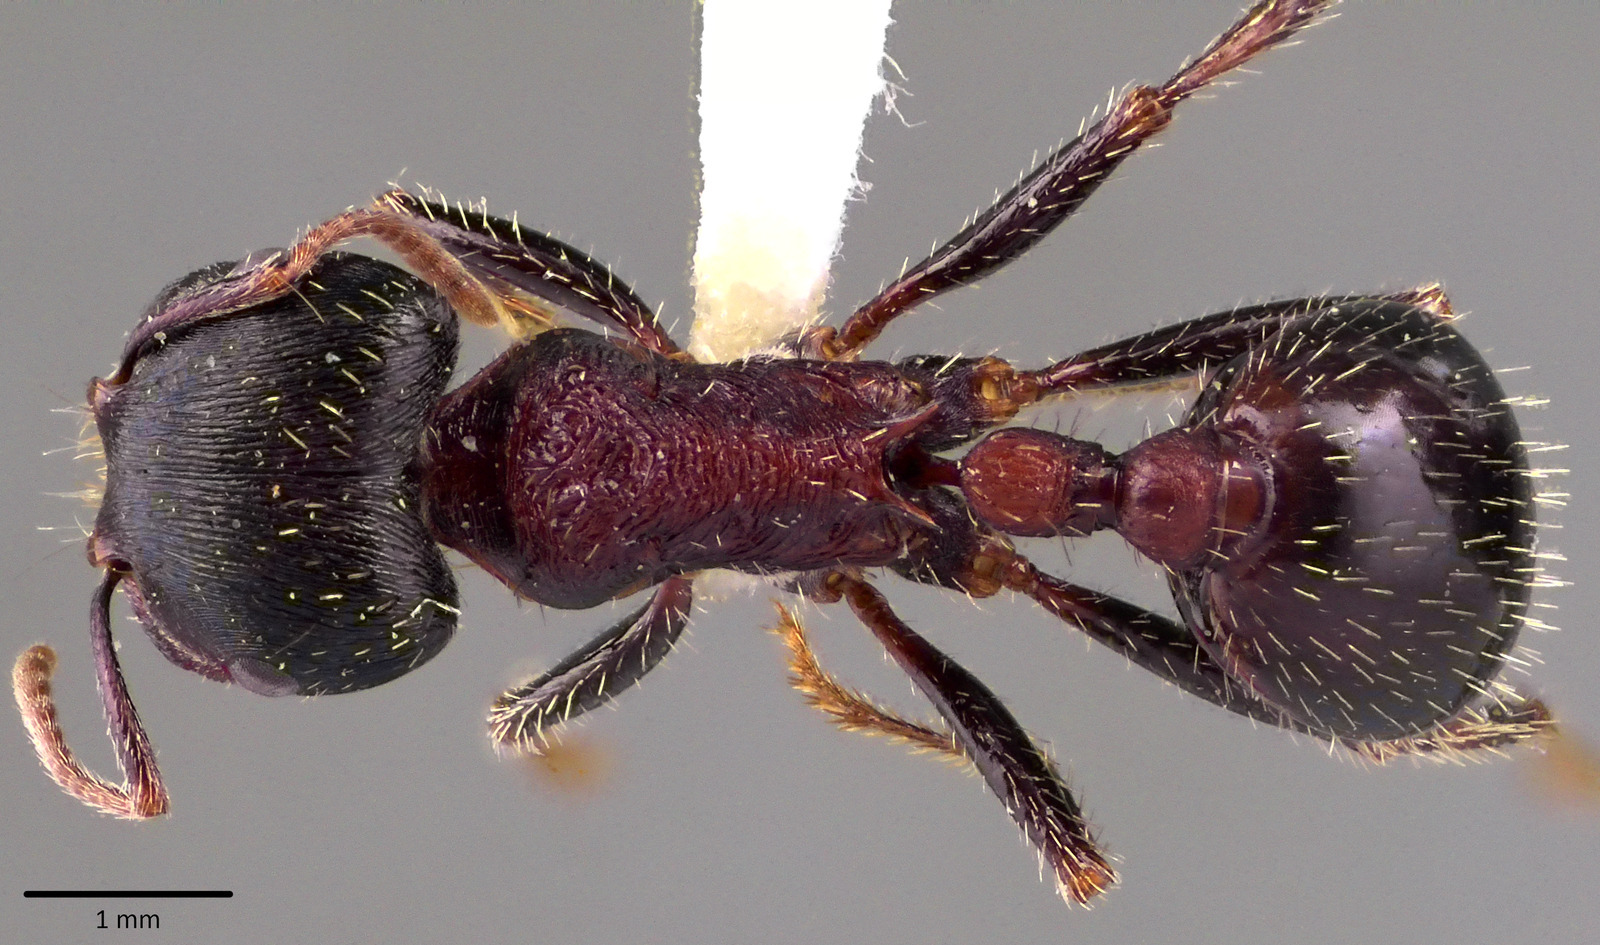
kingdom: Animalia
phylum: Arthropoda
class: Insecta
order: Hymenoptera
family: Formicidae
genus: Pogonomyrmex
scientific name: Pogonomyrmex rugosus
